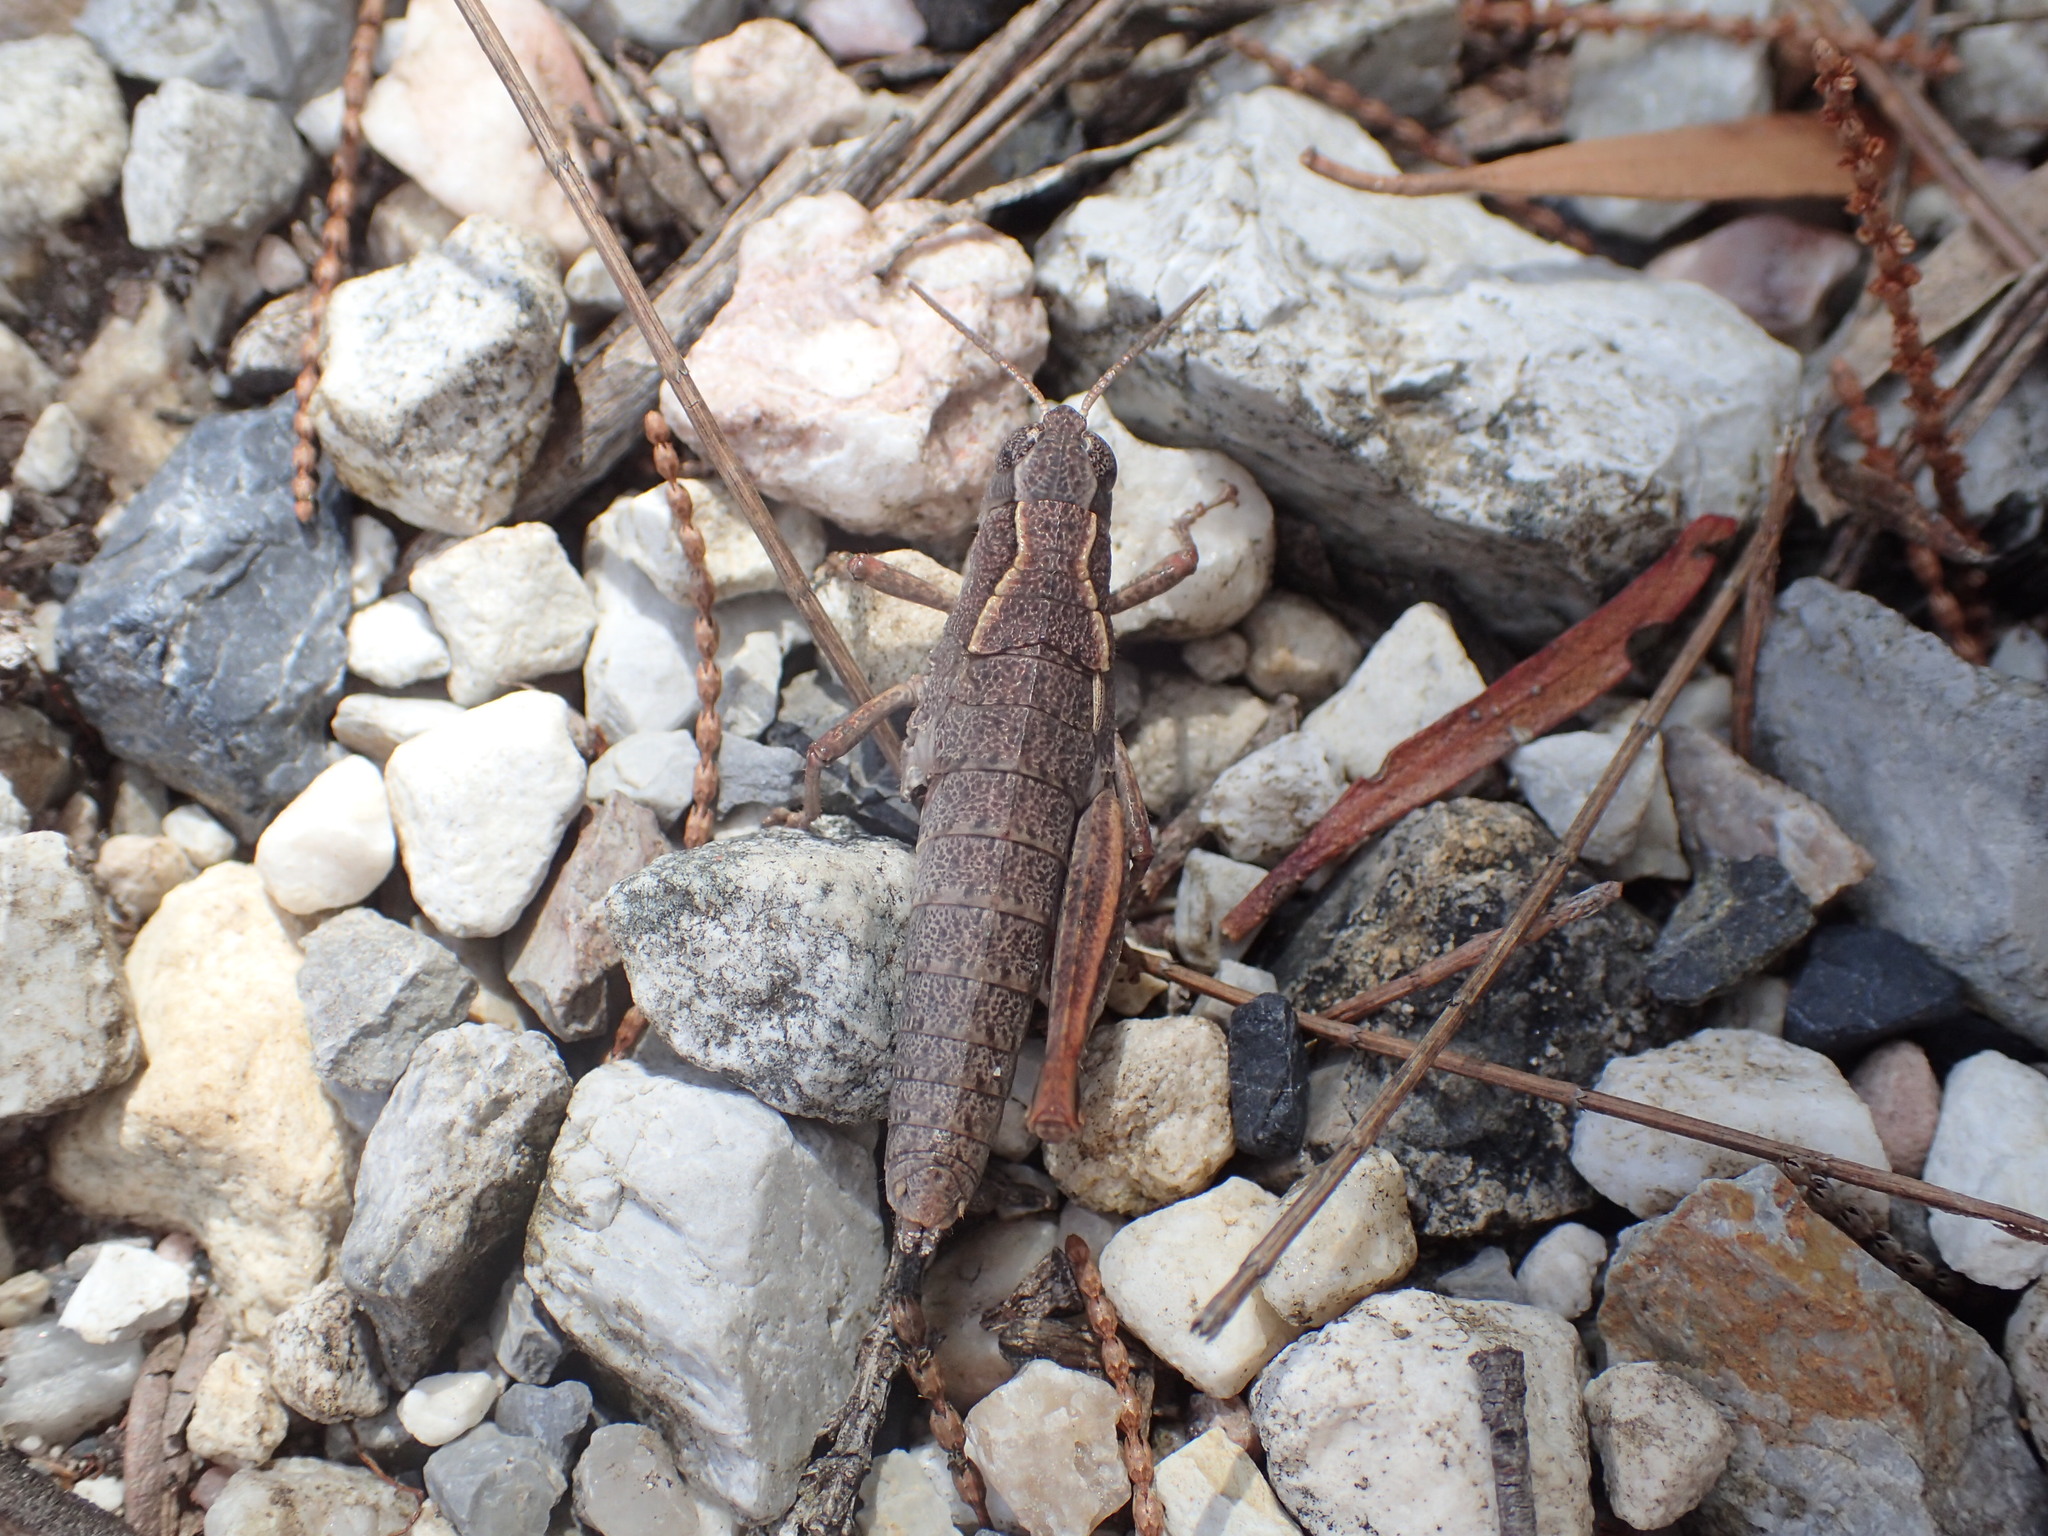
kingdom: Animalia
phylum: Arthropoda
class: Insecta
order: Orthoptera
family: Acrididae
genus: Tasmaniacris
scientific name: Tasmaniacris tasmaniensis
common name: Tasmanian grasshopper
